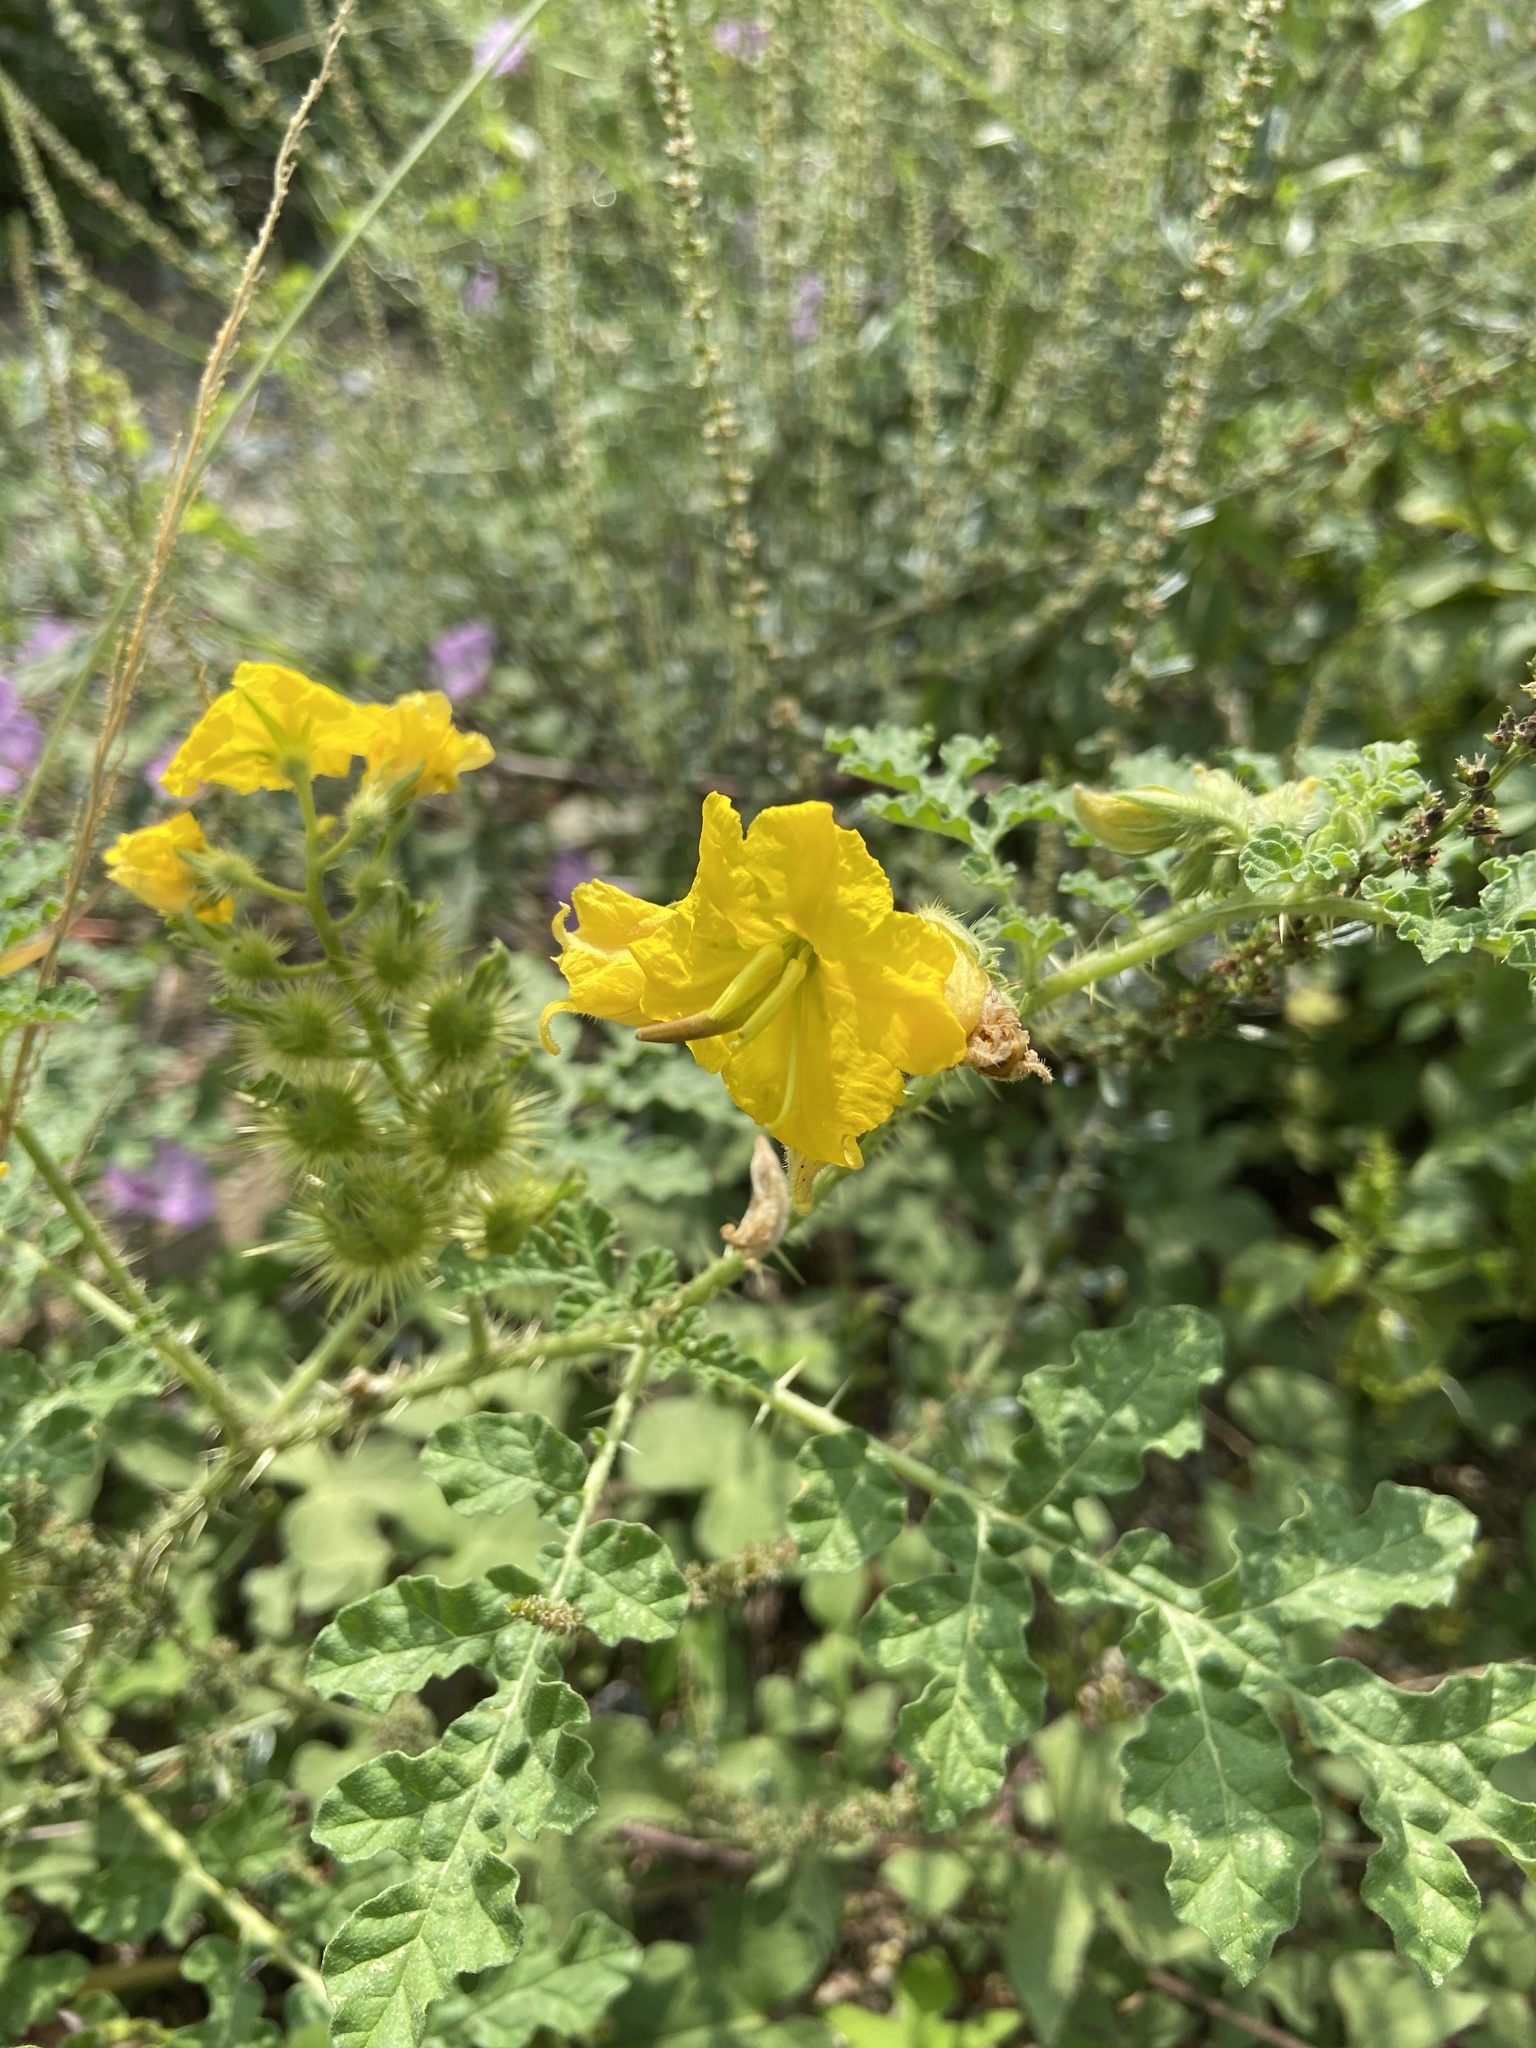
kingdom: Plantae
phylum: Tracheophyta
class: Magnoliopsida
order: Solanales
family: Solanaceae
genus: Solanum
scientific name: Solanum angustifolium
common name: Buffalobur nightshade
